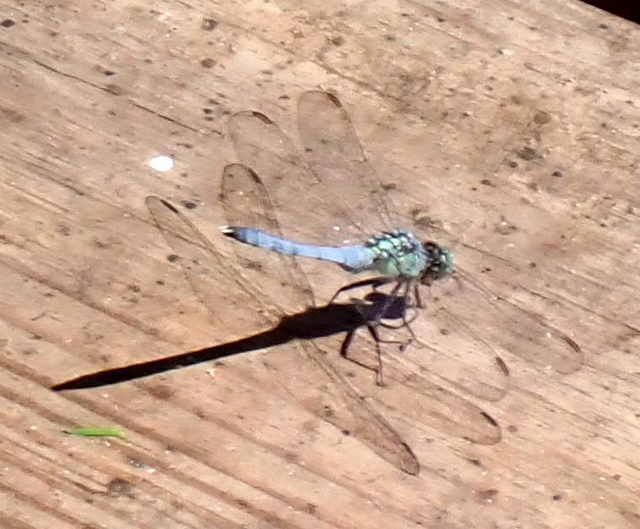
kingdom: Animalia
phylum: Arthropoda
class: Insecta
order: Odonata
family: Libellulidae
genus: Erythemis
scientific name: Erythemis simplicicollis
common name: Eastern pondhawk
